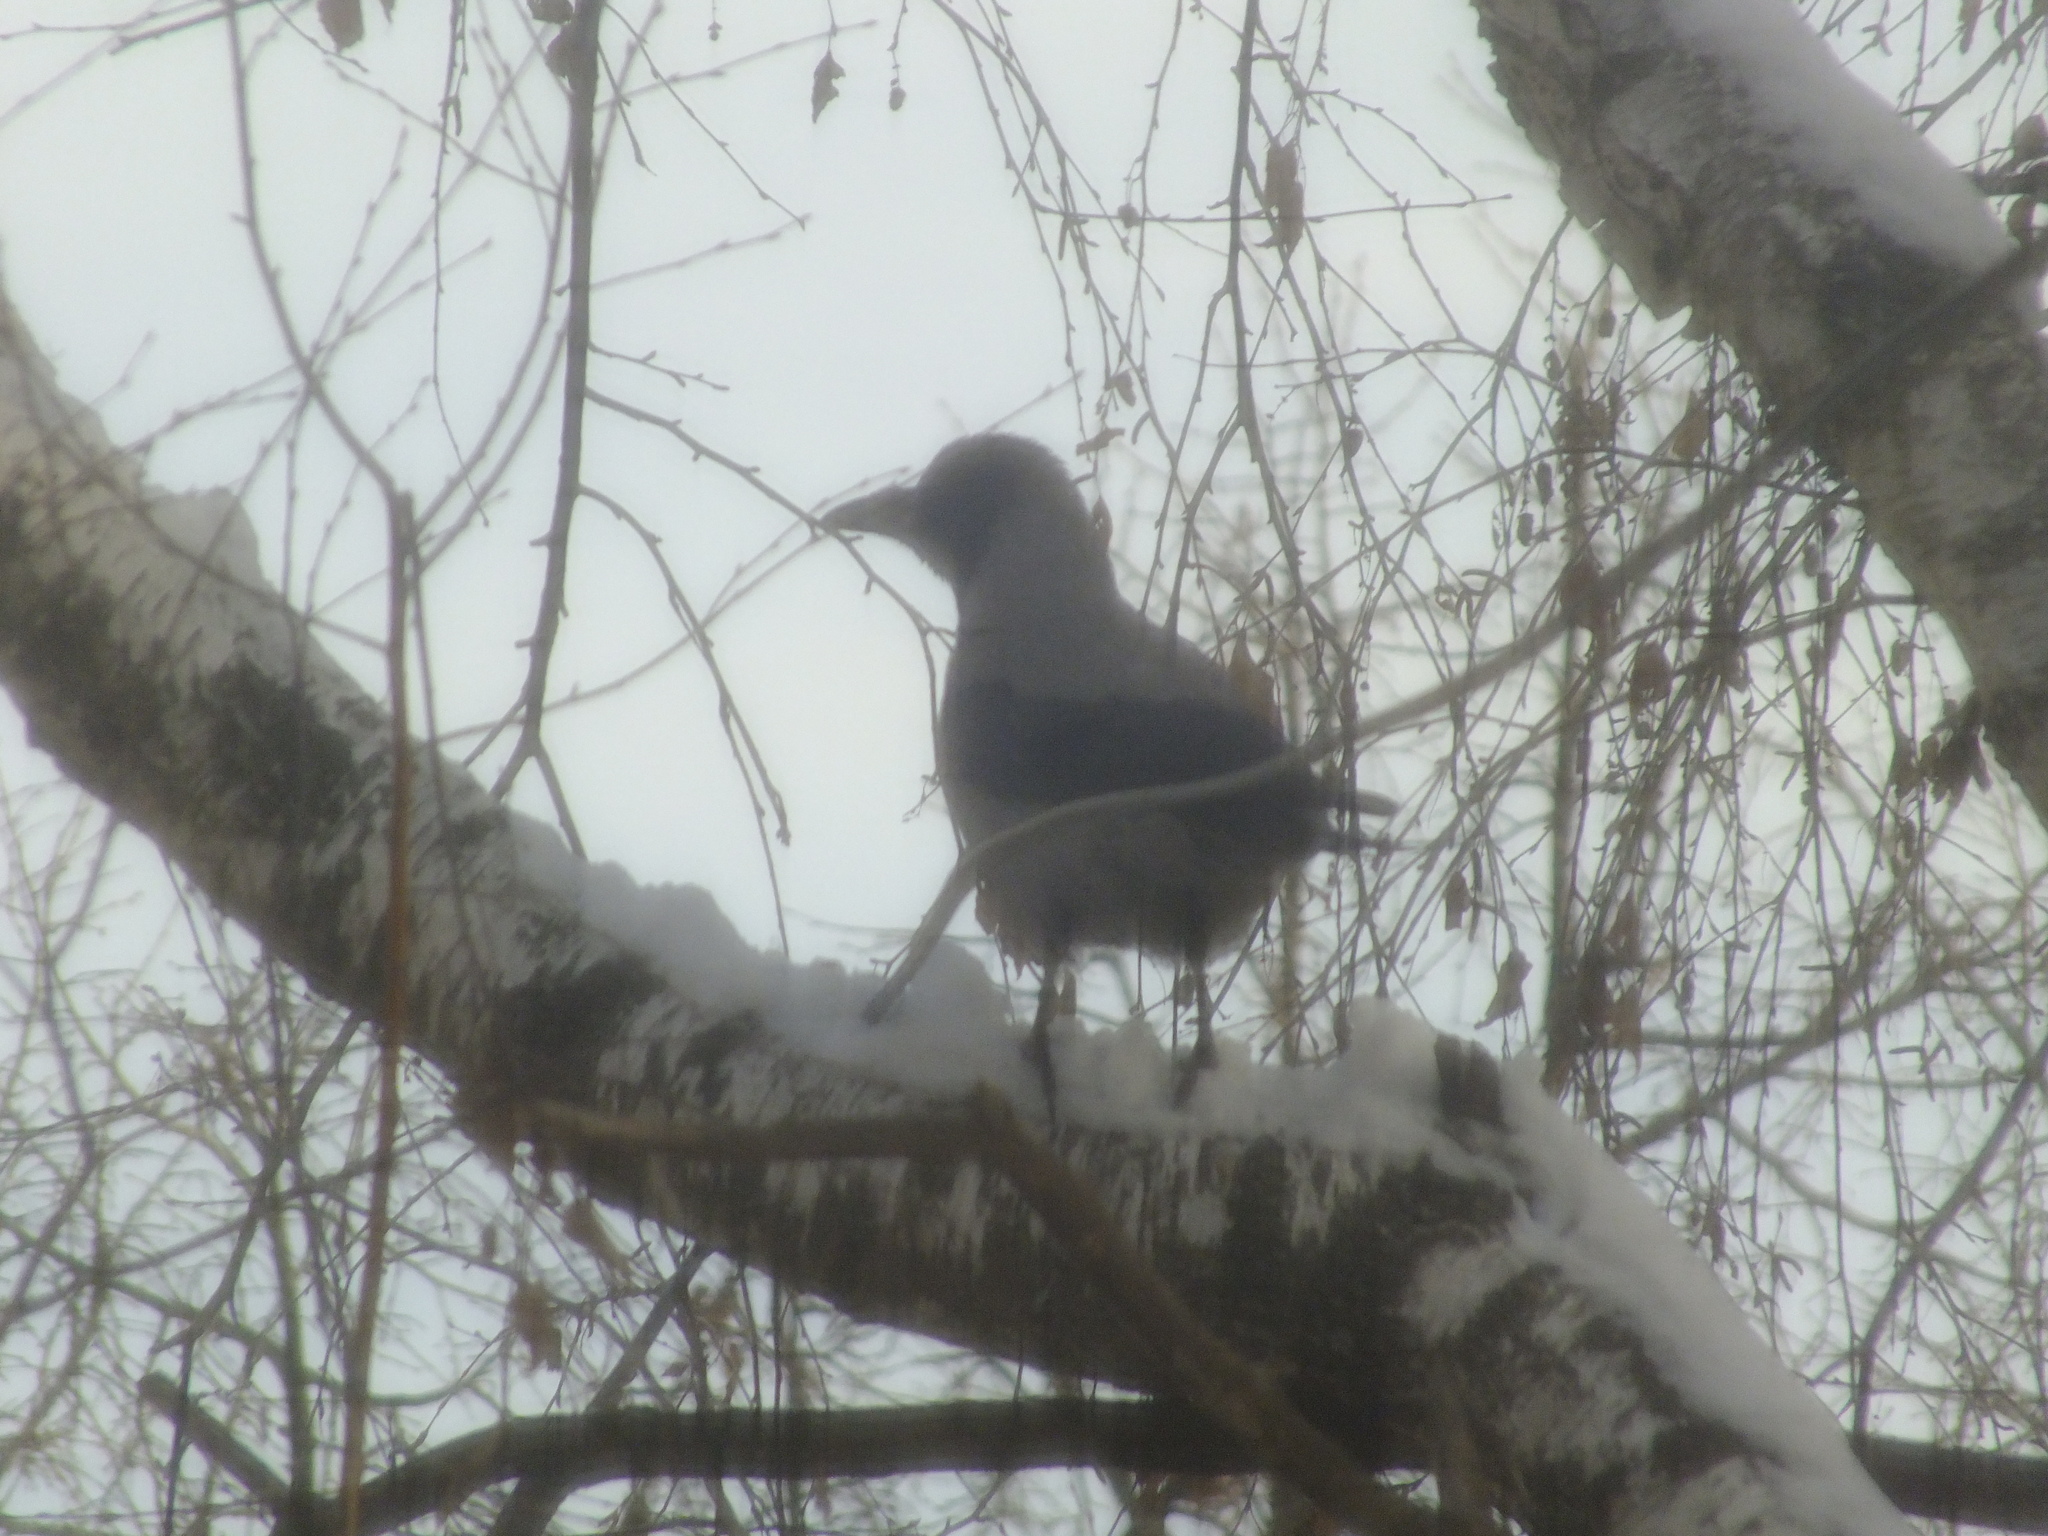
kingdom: Animalia
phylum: Chordata
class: Aves
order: Passeriformes
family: Corvidae
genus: Corvus
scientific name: Corvus cornix
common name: Hooded crow
